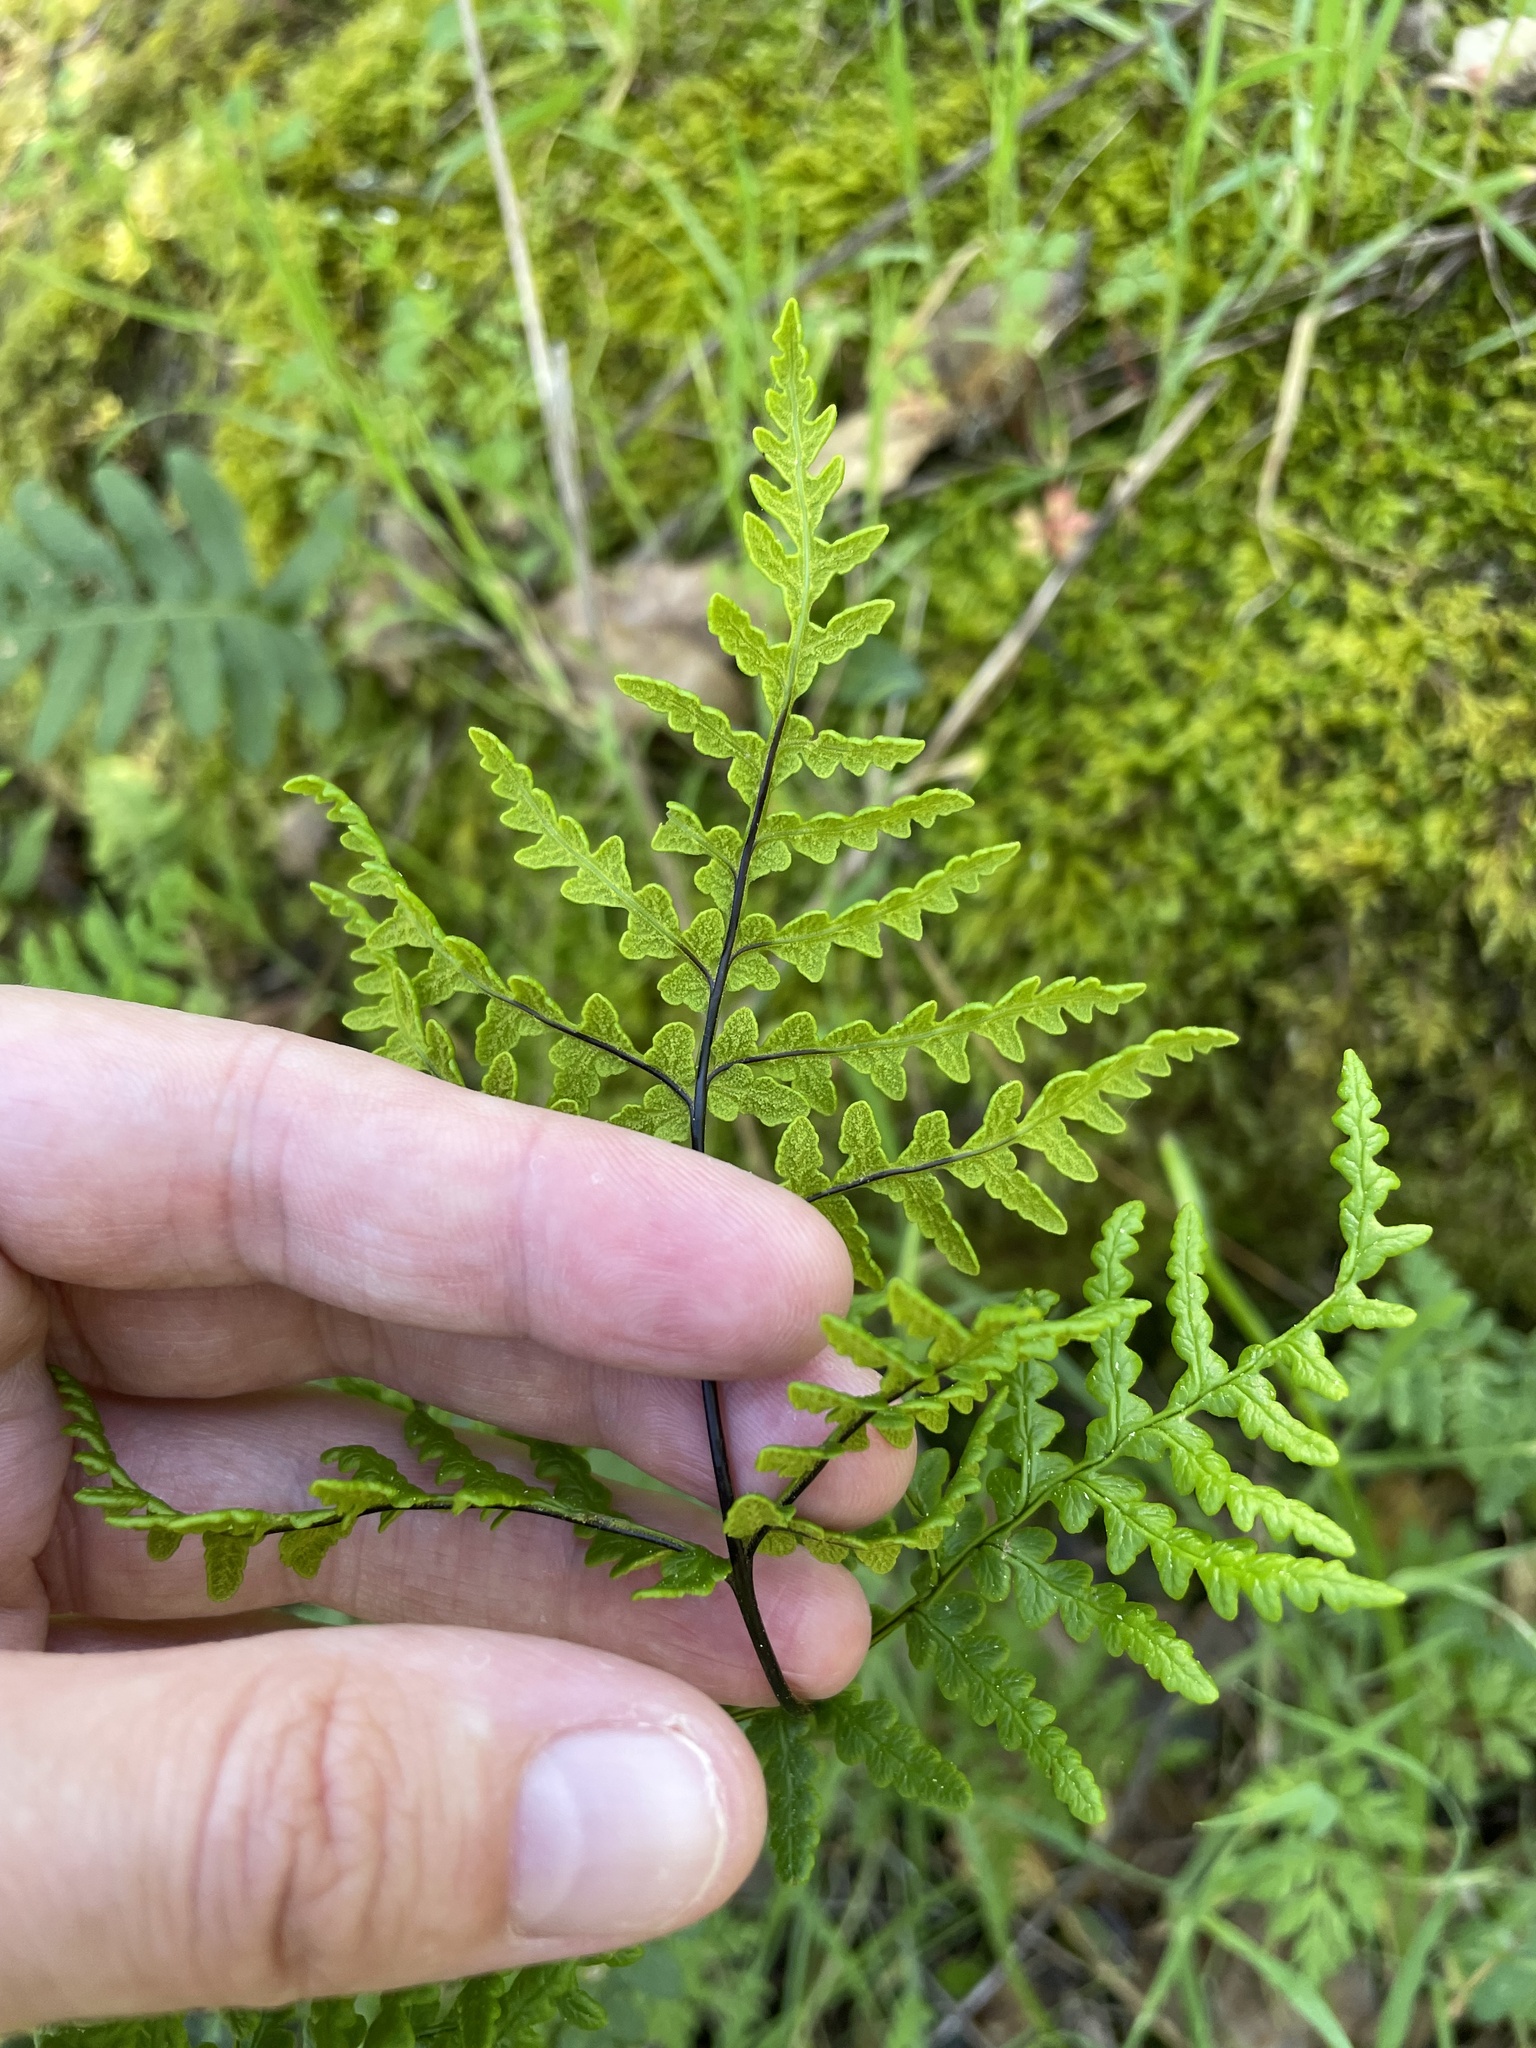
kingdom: Plantae
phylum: Tracheophyta
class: Polypodiopsida
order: Polypodiales
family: Pteridaceae
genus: Pentagramma
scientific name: Pentagramma triangularis
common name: Gold fern
